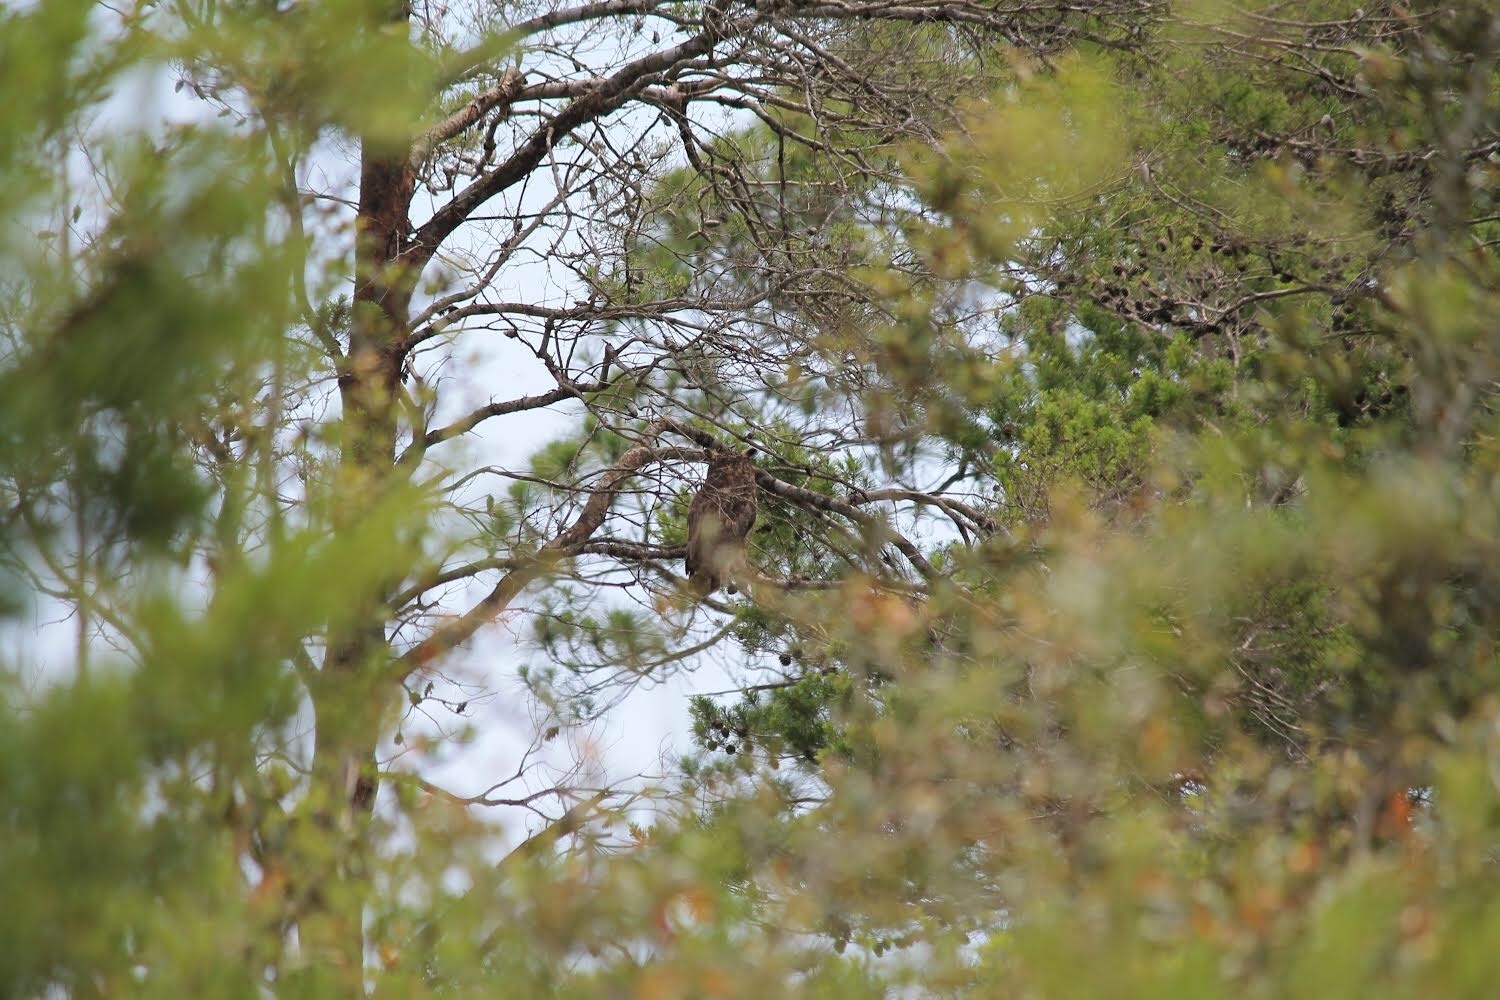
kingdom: Animalia
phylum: Chordata
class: Aves
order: Strigiformes
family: Strigidae
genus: Bubo
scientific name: Bubo virginianus
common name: Great horned owl
